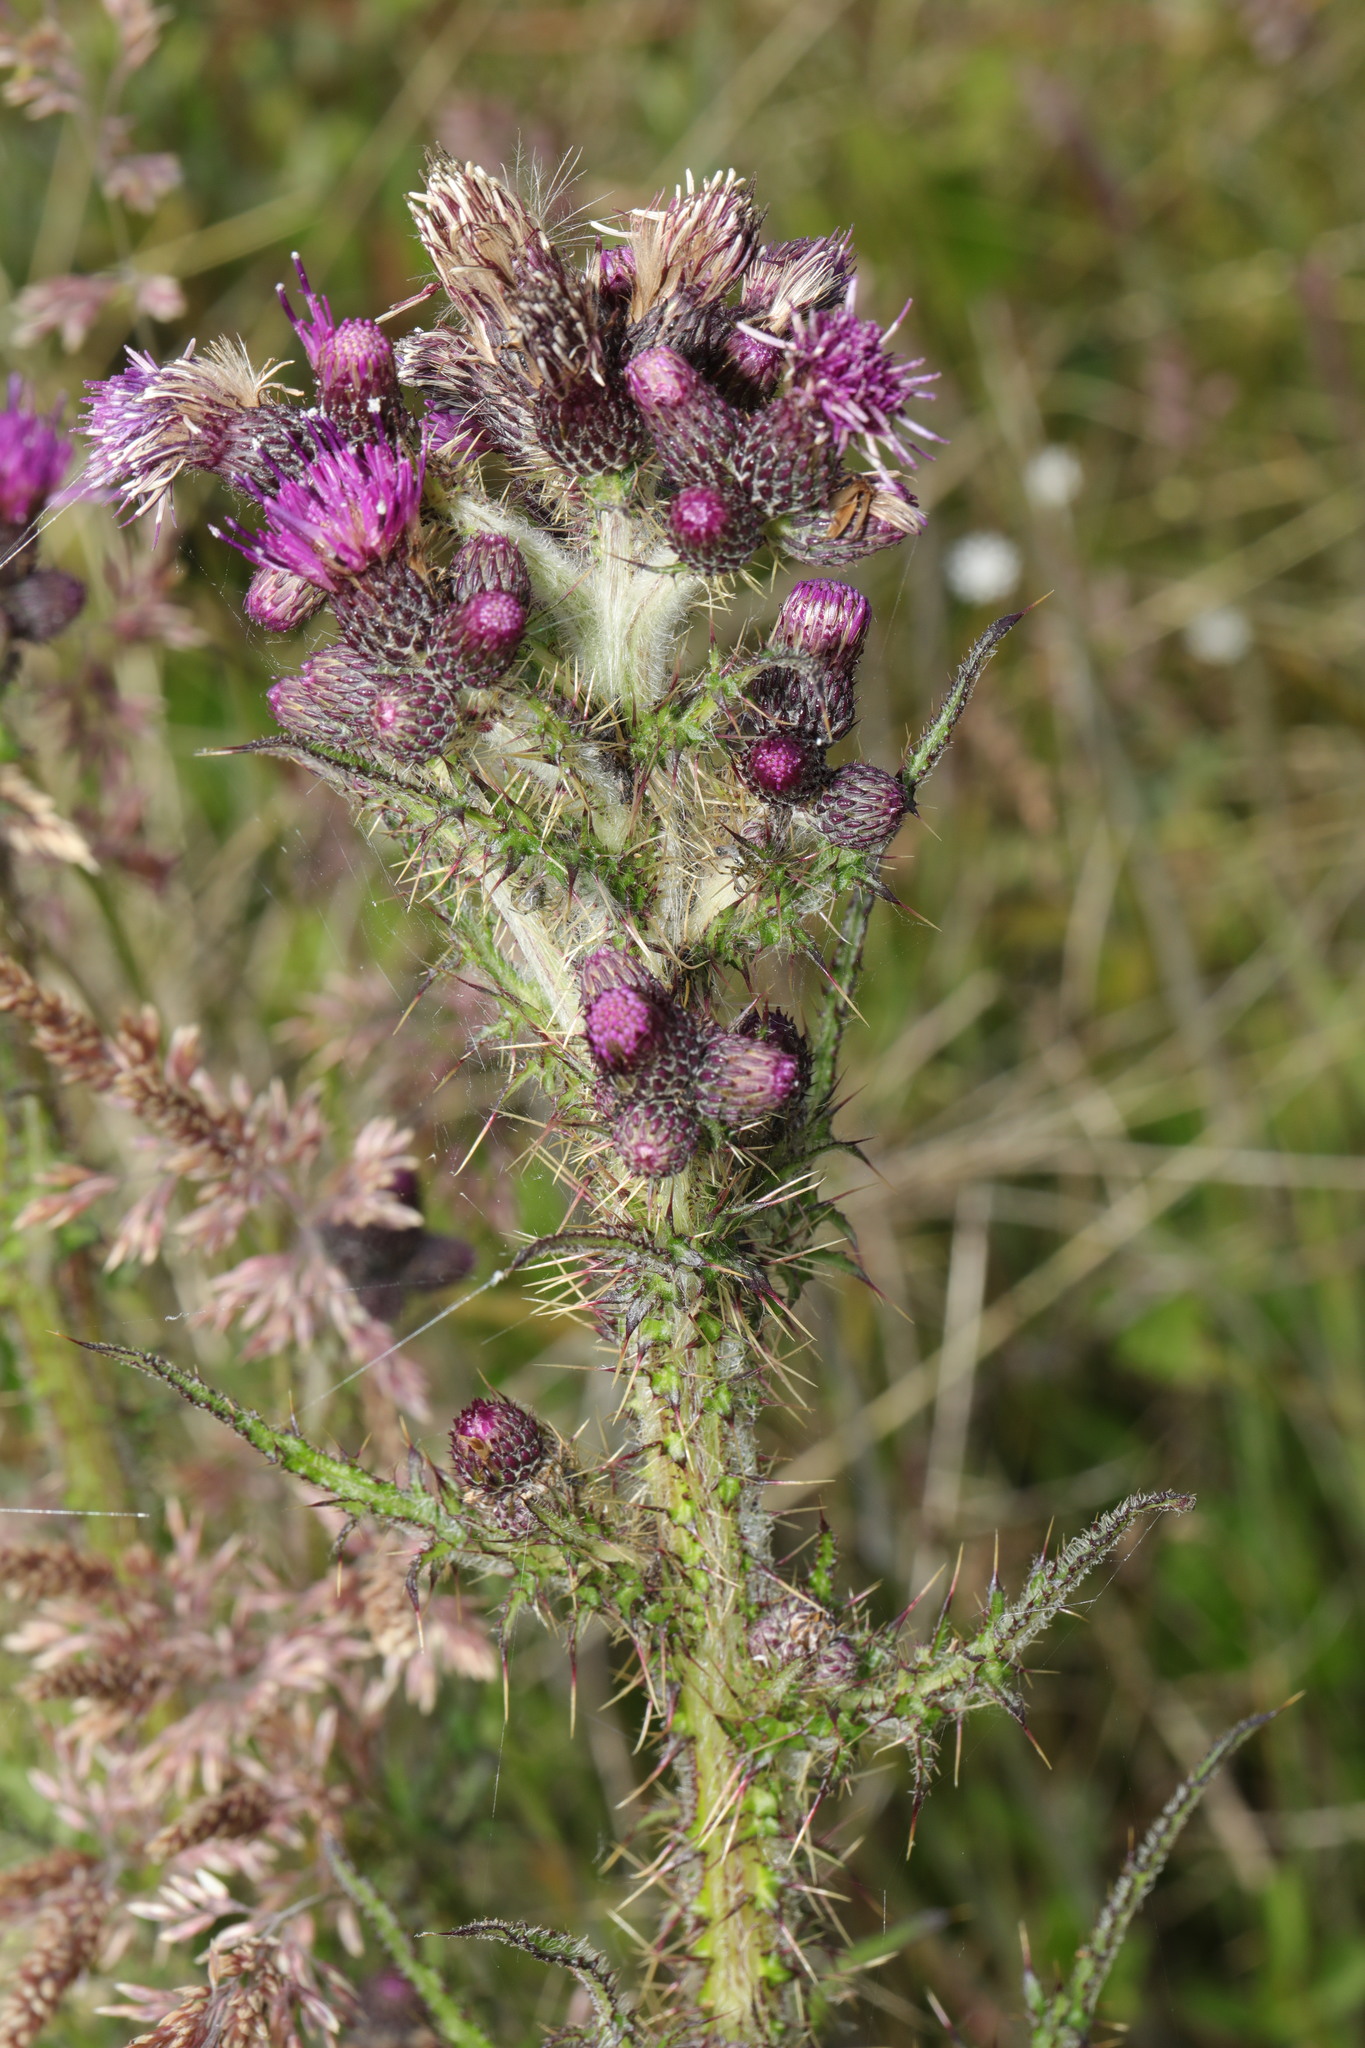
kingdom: Plantae
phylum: Tracheophyta
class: Magnoliopsida
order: Asterales
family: Asteraceae
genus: Cirsium
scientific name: Cirsium palustre
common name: Marsh thistle
